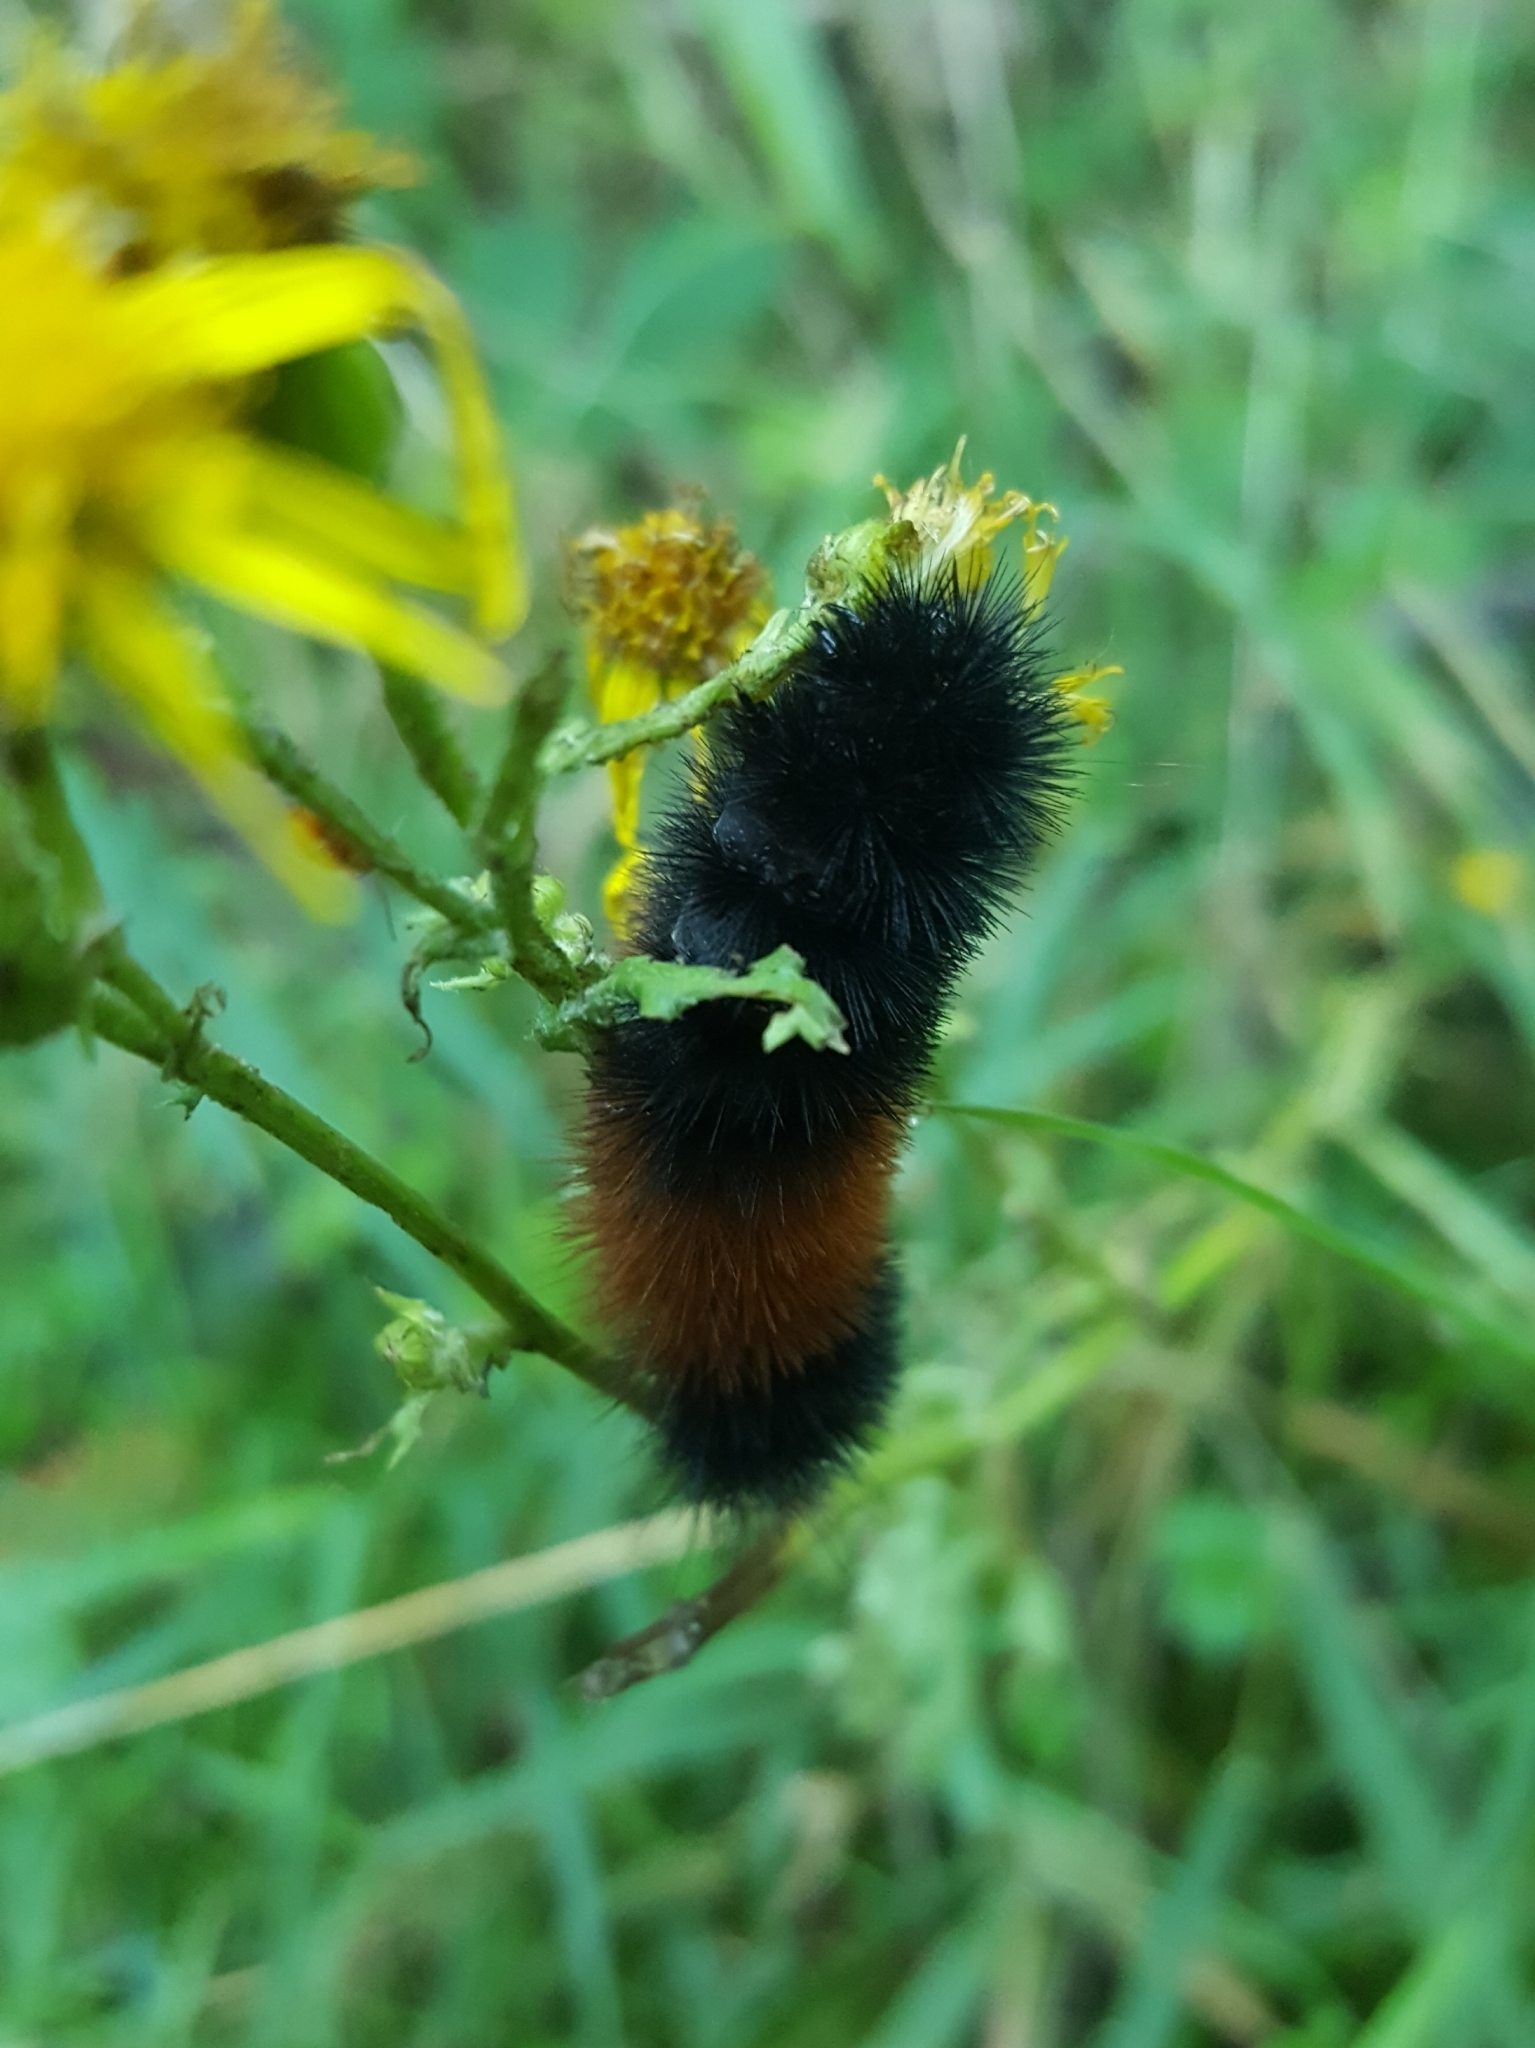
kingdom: Animalia
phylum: Arthropoda
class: Insecta
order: Lepidoptera
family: Erebidae
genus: Pyrrharctia
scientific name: Pyrrharctia isabella
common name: Isabella tiger moth
